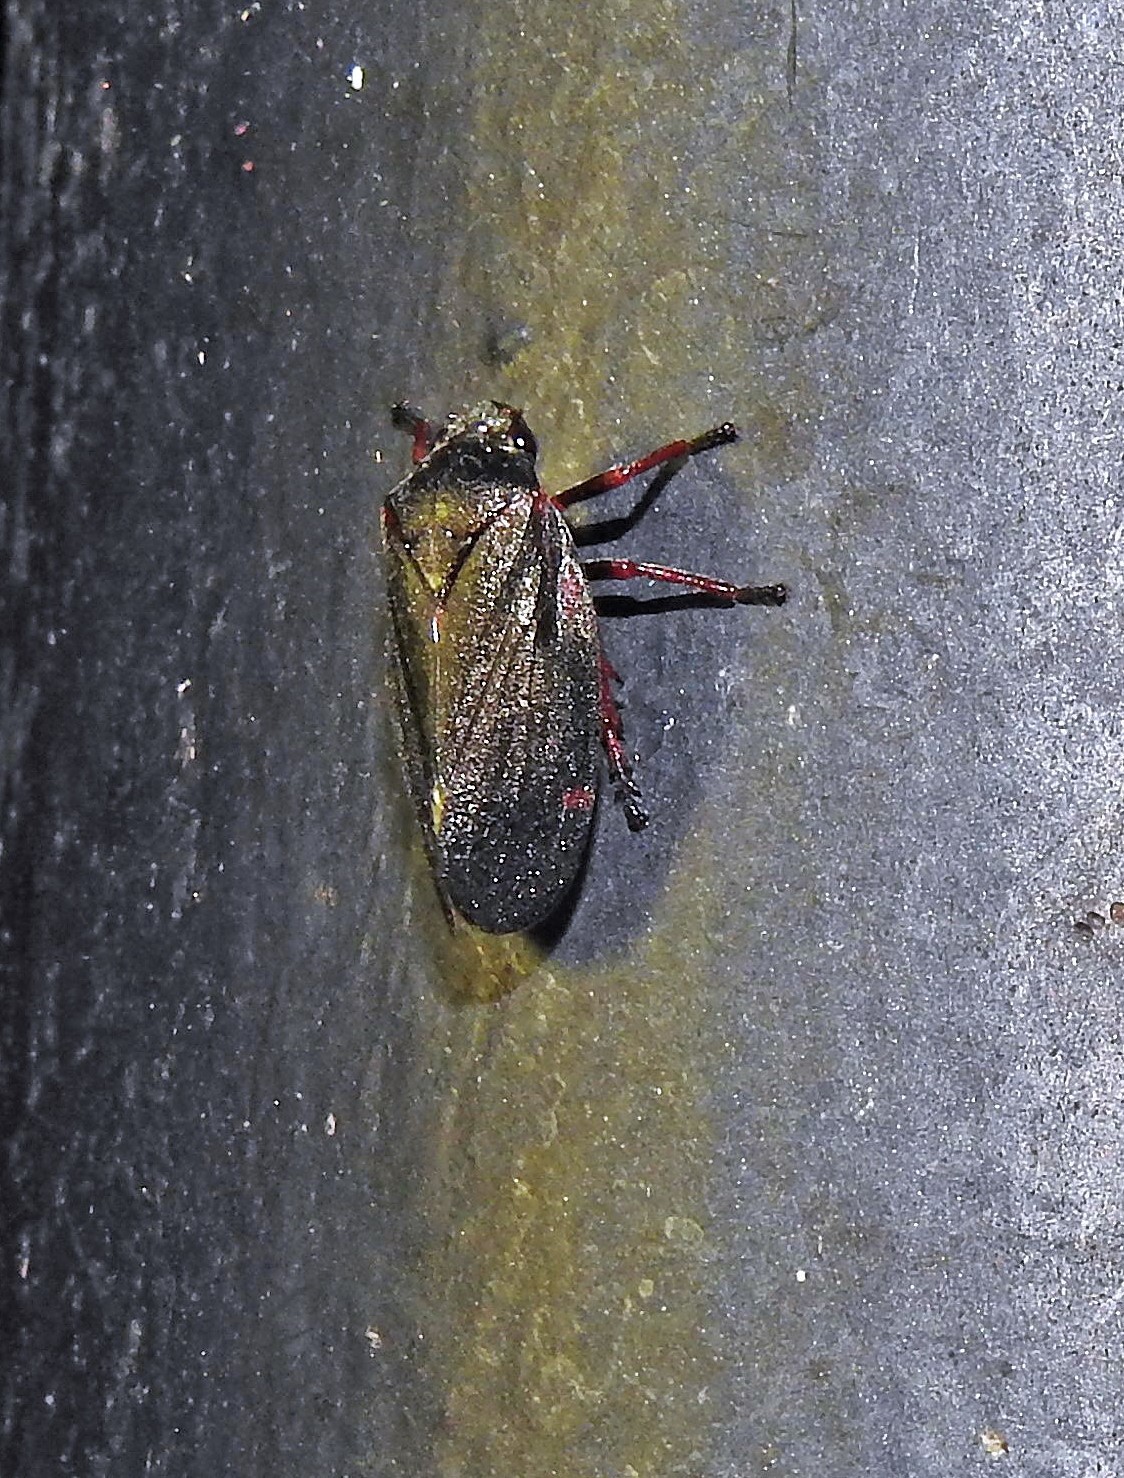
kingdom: Animalia
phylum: Arthropoda
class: Insecta
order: Hemiptera
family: Cercopidae
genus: Deois
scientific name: Deois knoblauchii
